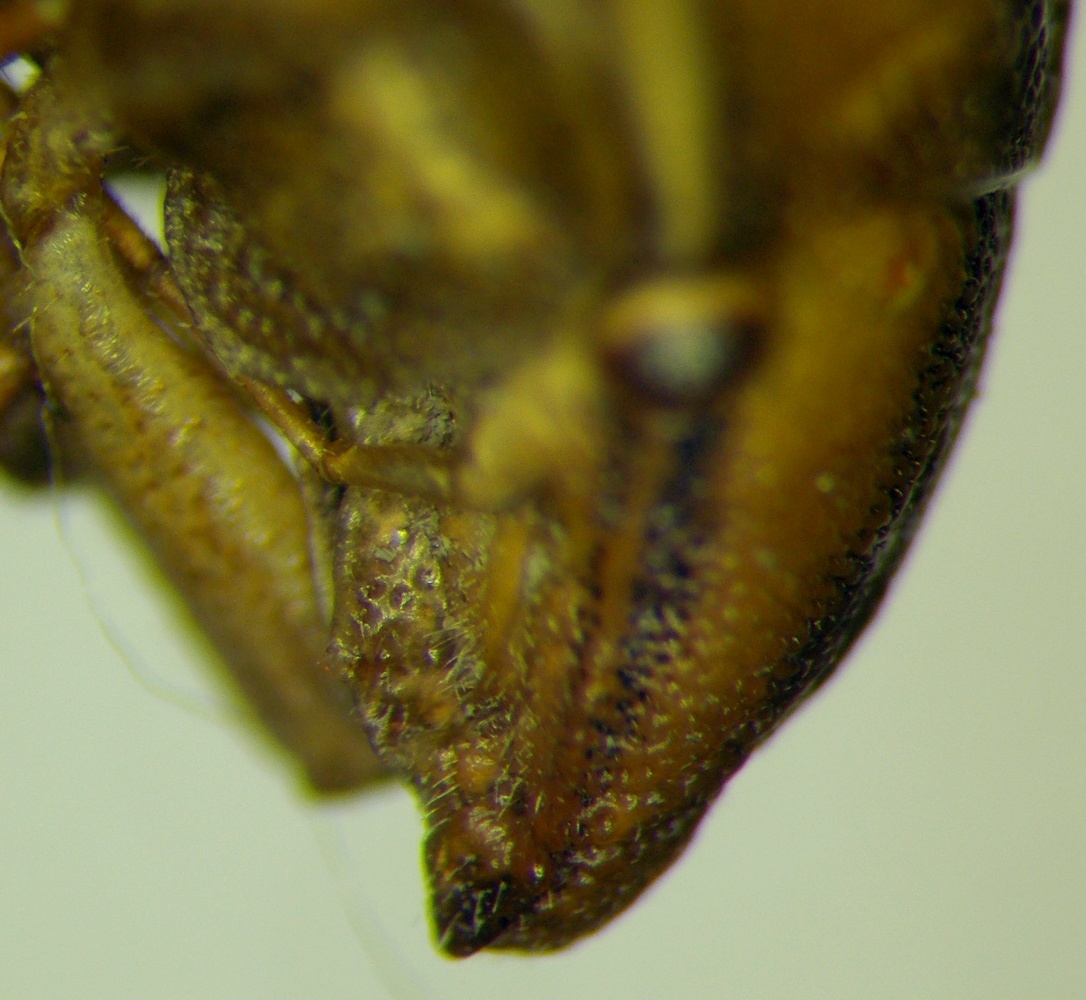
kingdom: Animalia
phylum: Arthropoda
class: Insecta
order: Hemiptera
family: Pentatomidae
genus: Aelia
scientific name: Aelia
